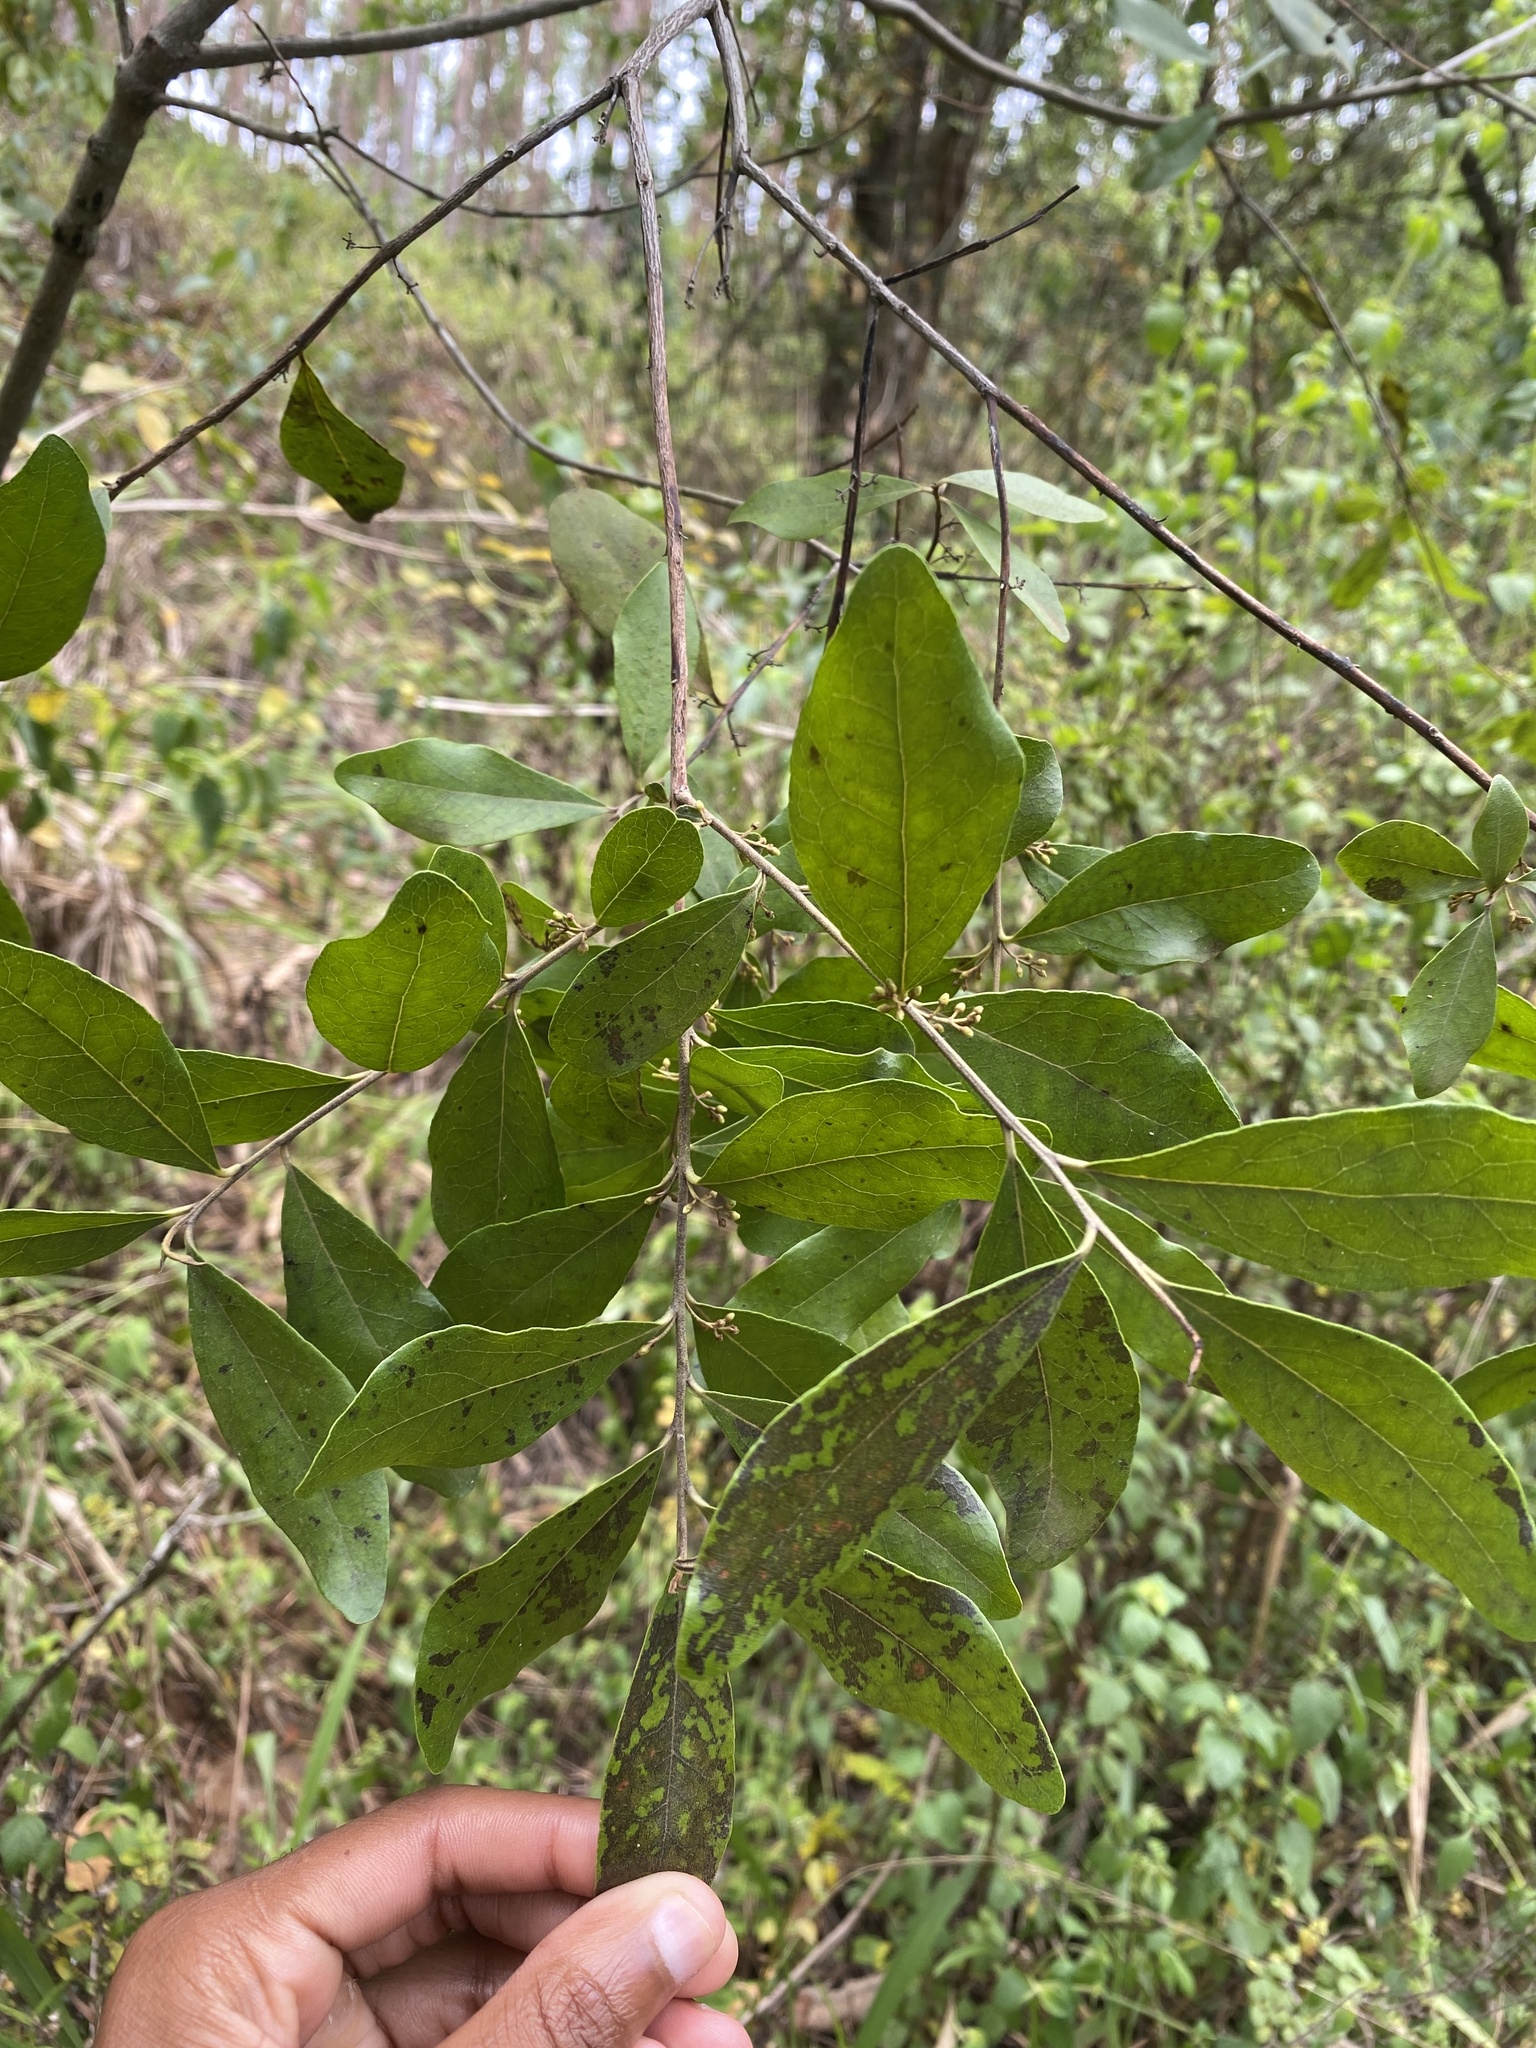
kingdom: Plantae
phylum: Tracheophyta
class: Magnoliopsida
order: Ericales
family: Ebenaceae
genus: Euclea
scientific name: Euclea crispa
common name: Blue guarri
